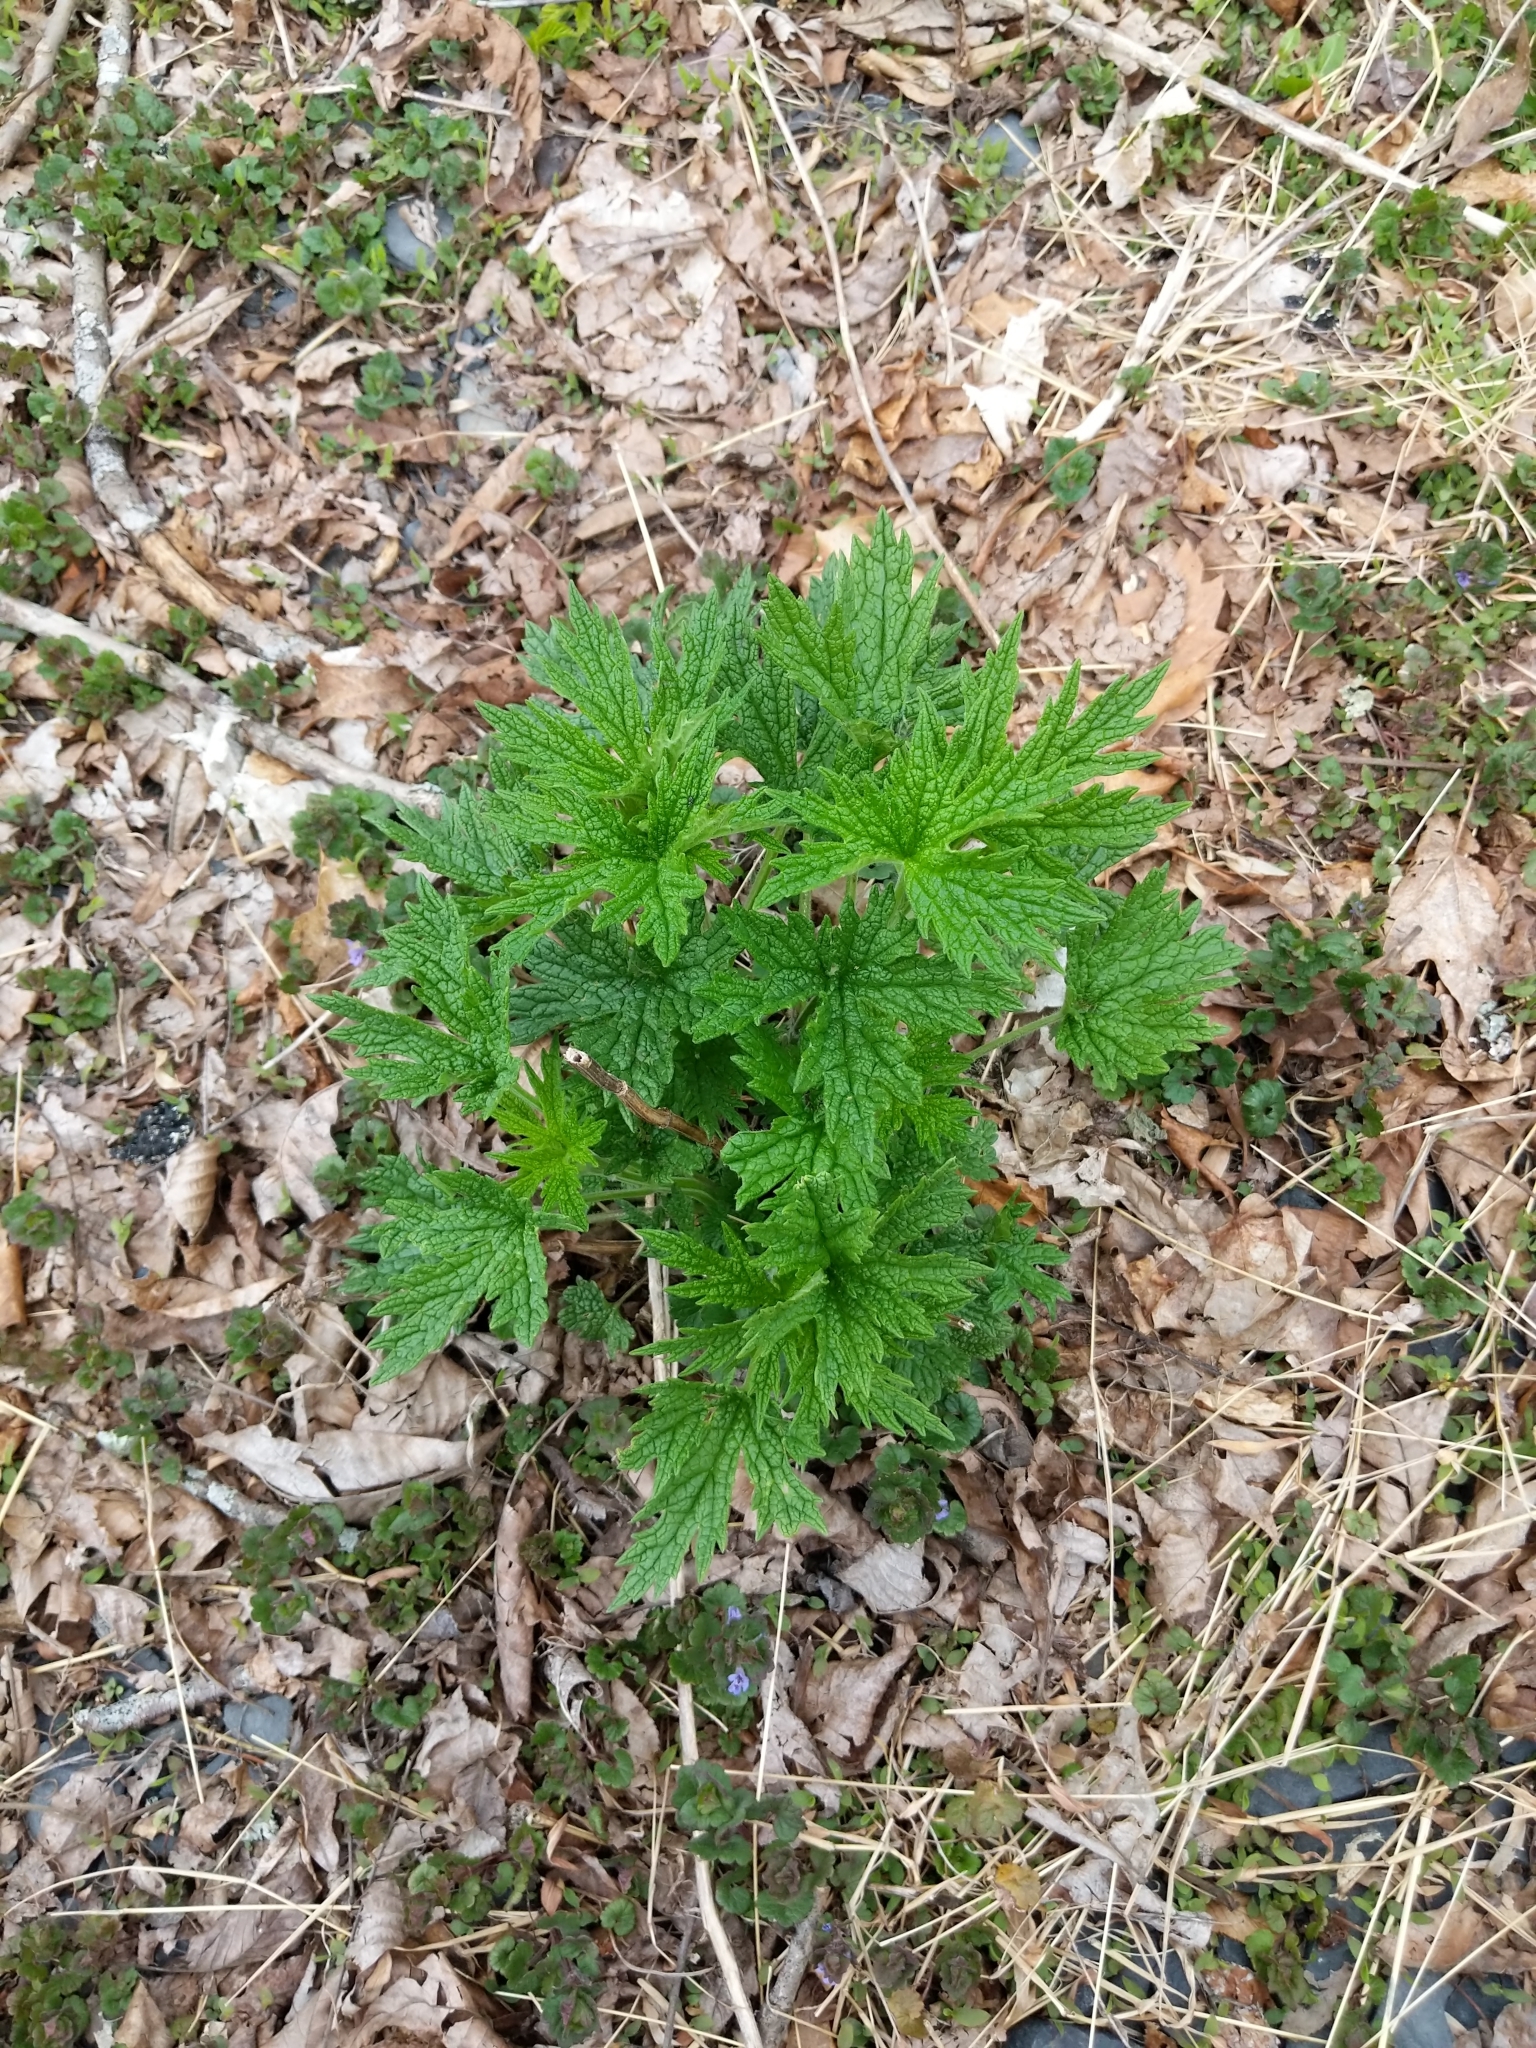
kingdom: Plantae
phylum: Tracheophyta
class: Magnoliopsida
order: Lamiales
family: Lamiaceae
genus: Leonurus
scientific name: Leonurus cardiaca
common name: Motherwort
